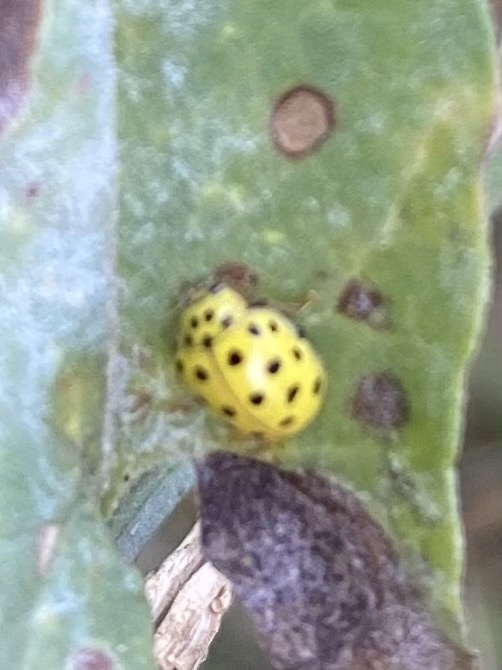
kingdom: Animalia
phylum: Arthropoda
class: Insecta
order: Coleoptera
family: Coccinellidae
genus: Psyllobora
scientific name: Psyllobora vigintiduopunctata
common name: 22-spot ladybird
